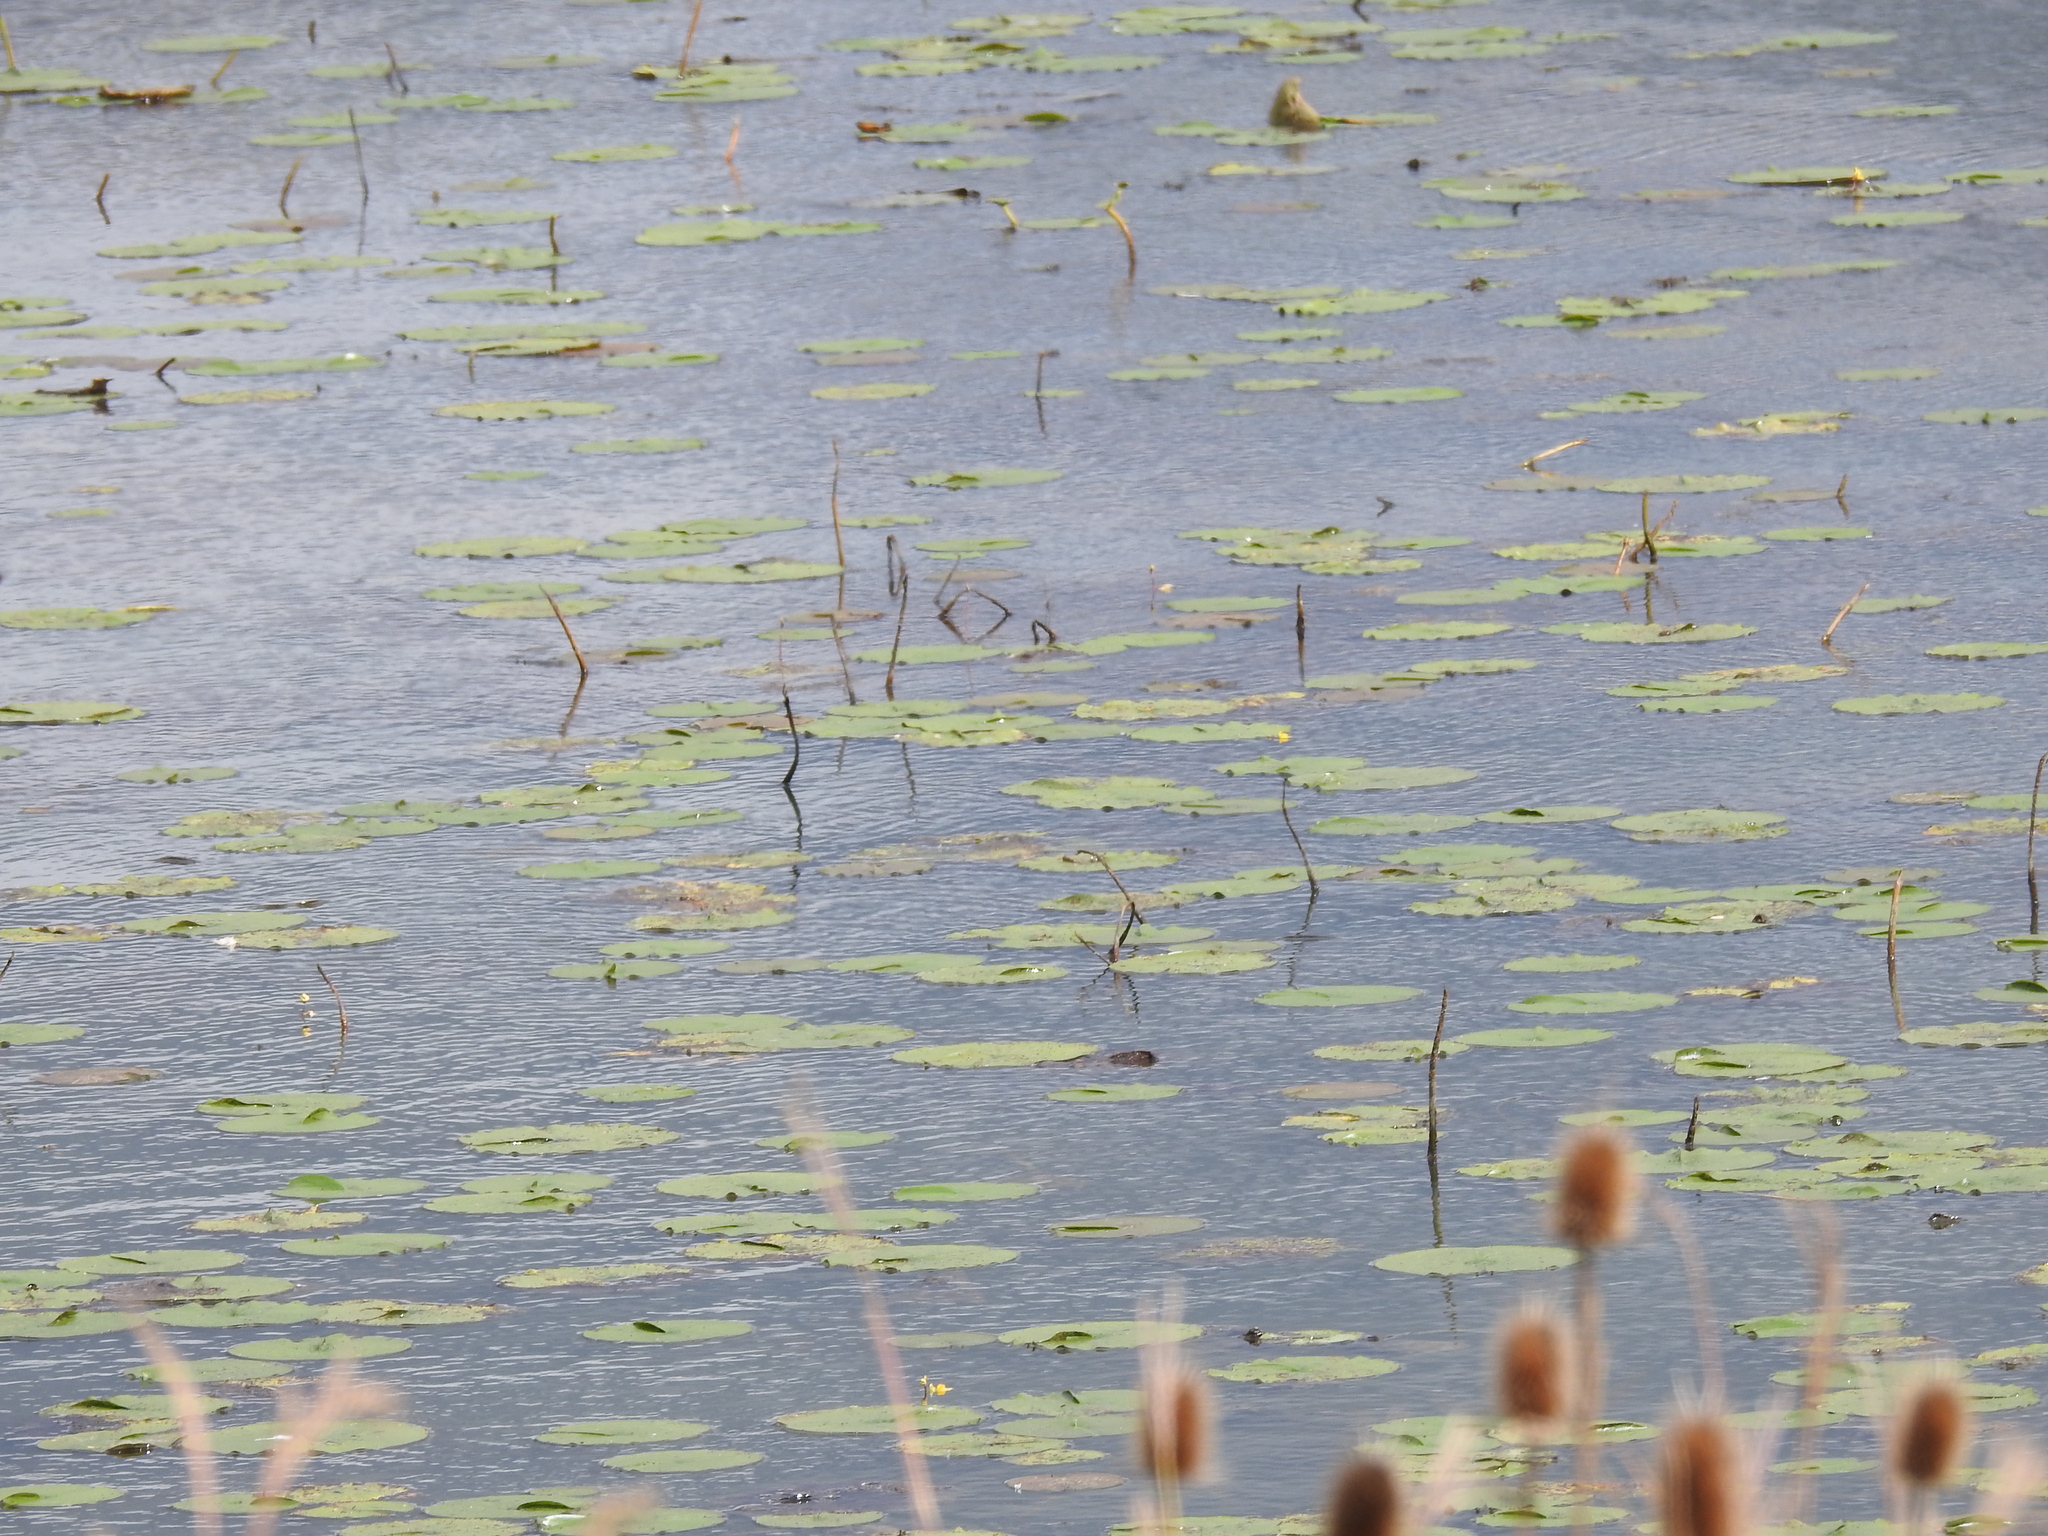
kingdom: Plantae
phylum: Tracheophyta
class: Magnoliopsida
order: Nymphaeales
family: Nymphaeaceae
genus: Nymphaea
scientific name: Nymphaea odorata
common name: Fragrant water-lily
